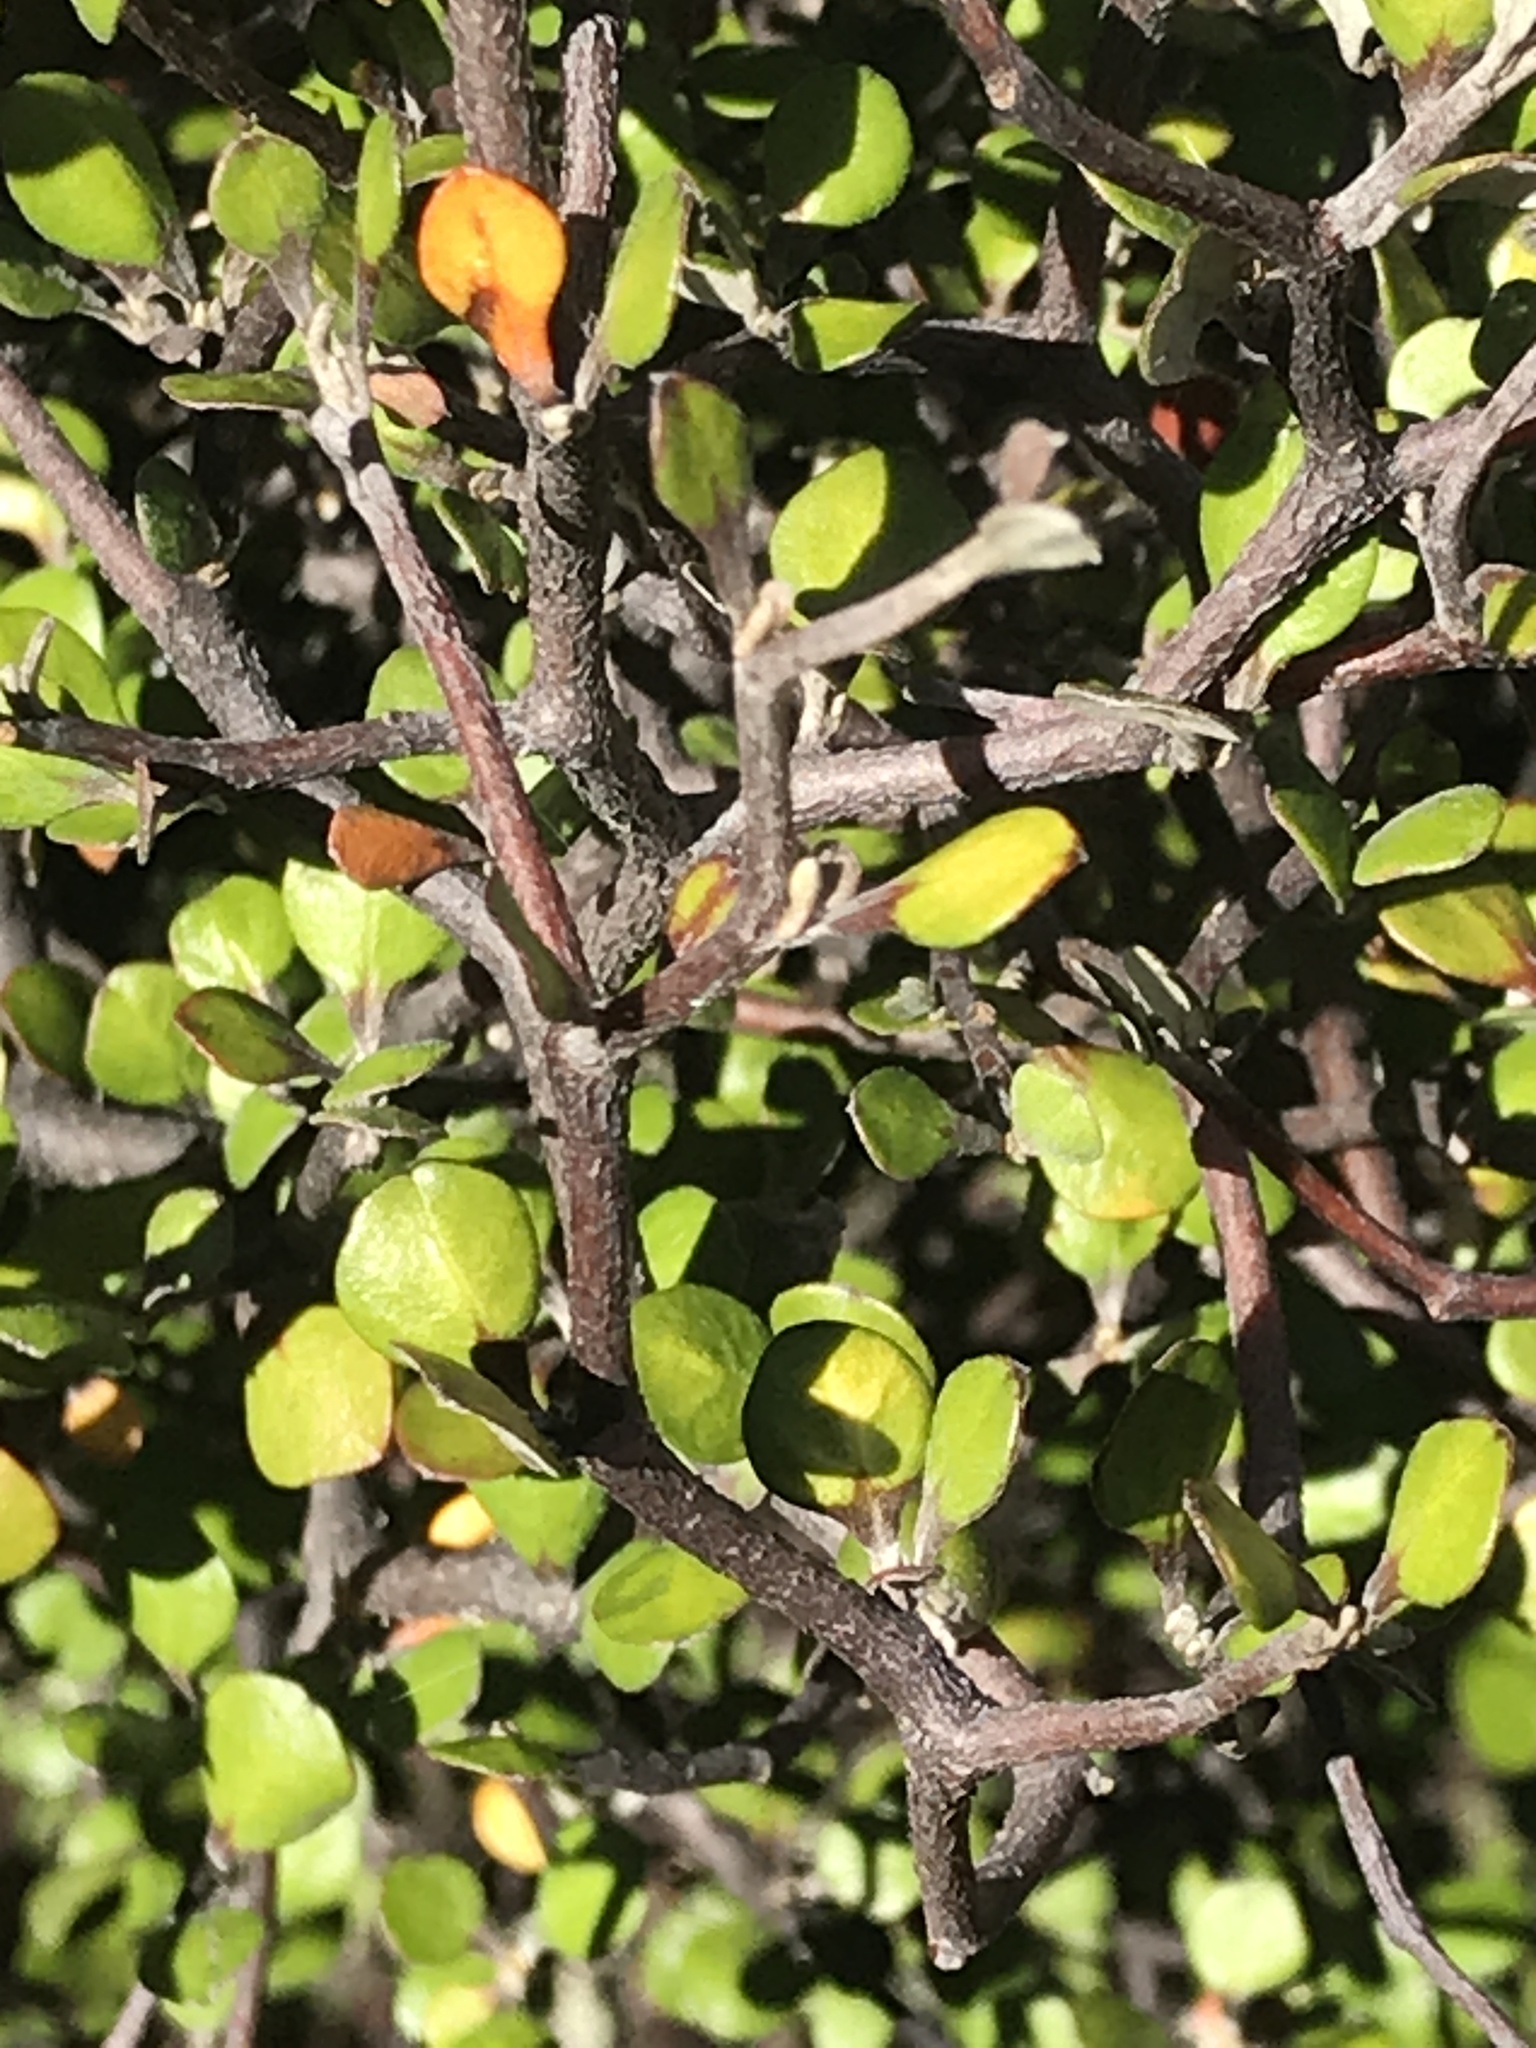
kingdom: Plantae
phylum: Tracheophyta
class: Magnoliopsida
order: Asterales
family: Argophyllaceae
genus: Corokia
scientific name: Corokia cotoneaster
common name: Wire nettingbush
